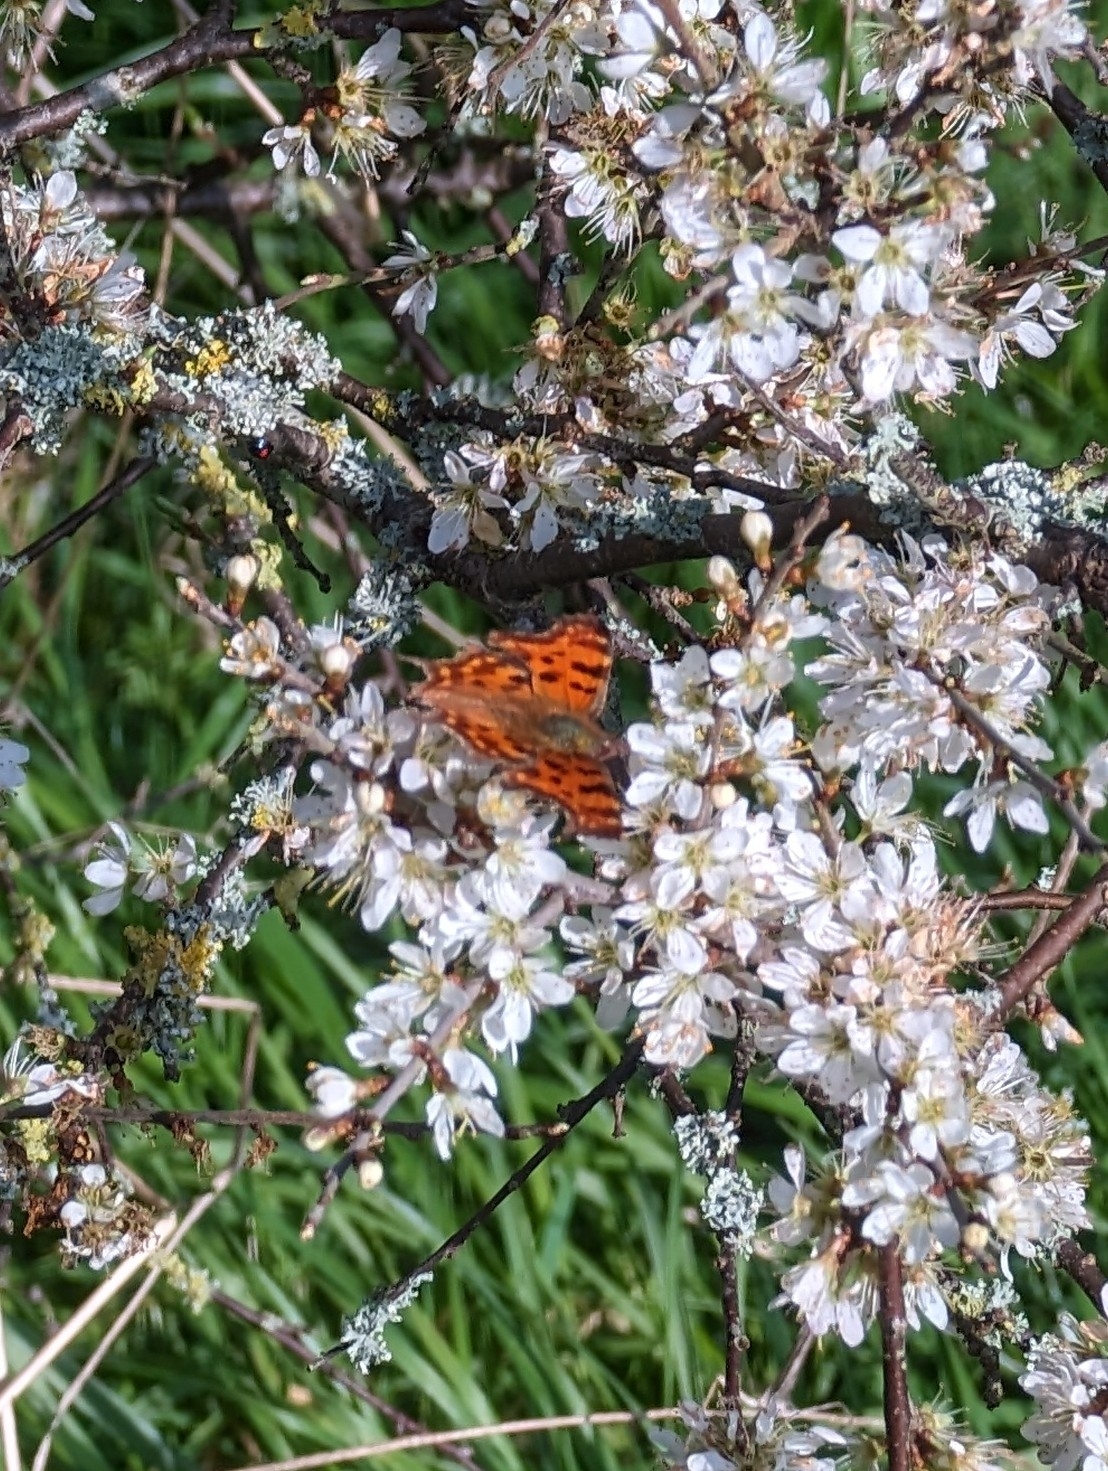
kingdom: Animalia
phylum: Arthropoda
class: Insecta
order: Lepidoptera
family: Nymphalidae
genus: Polygonia
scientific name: Polygonia c-album
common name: Comma
